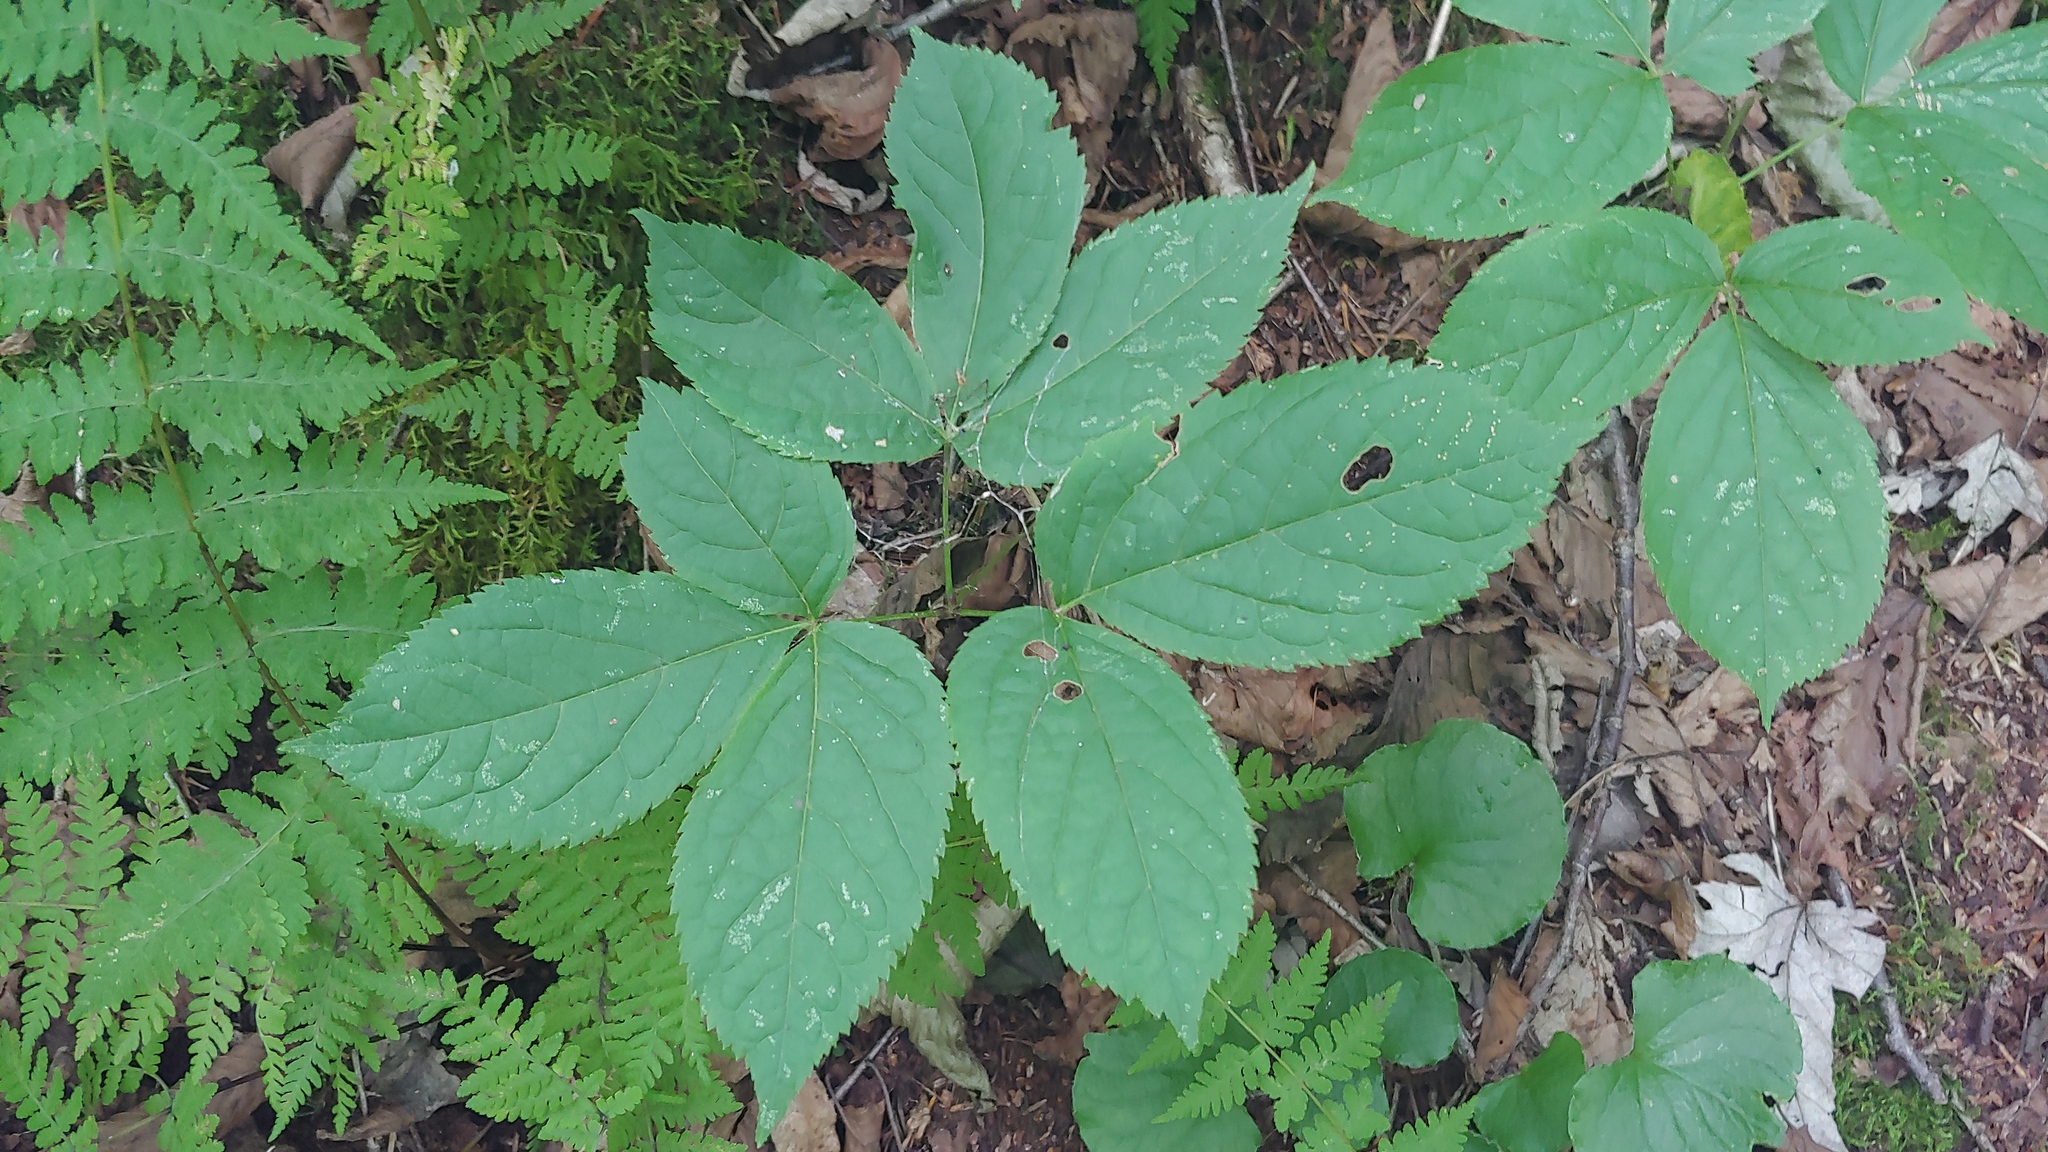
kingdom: Plantae
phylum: Tracheophyta
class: Magnoliopsida
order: Apiales
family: Araliaceae
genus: Aralia
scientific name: Aralia nudicaulis
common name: Wild sarsaparilla
